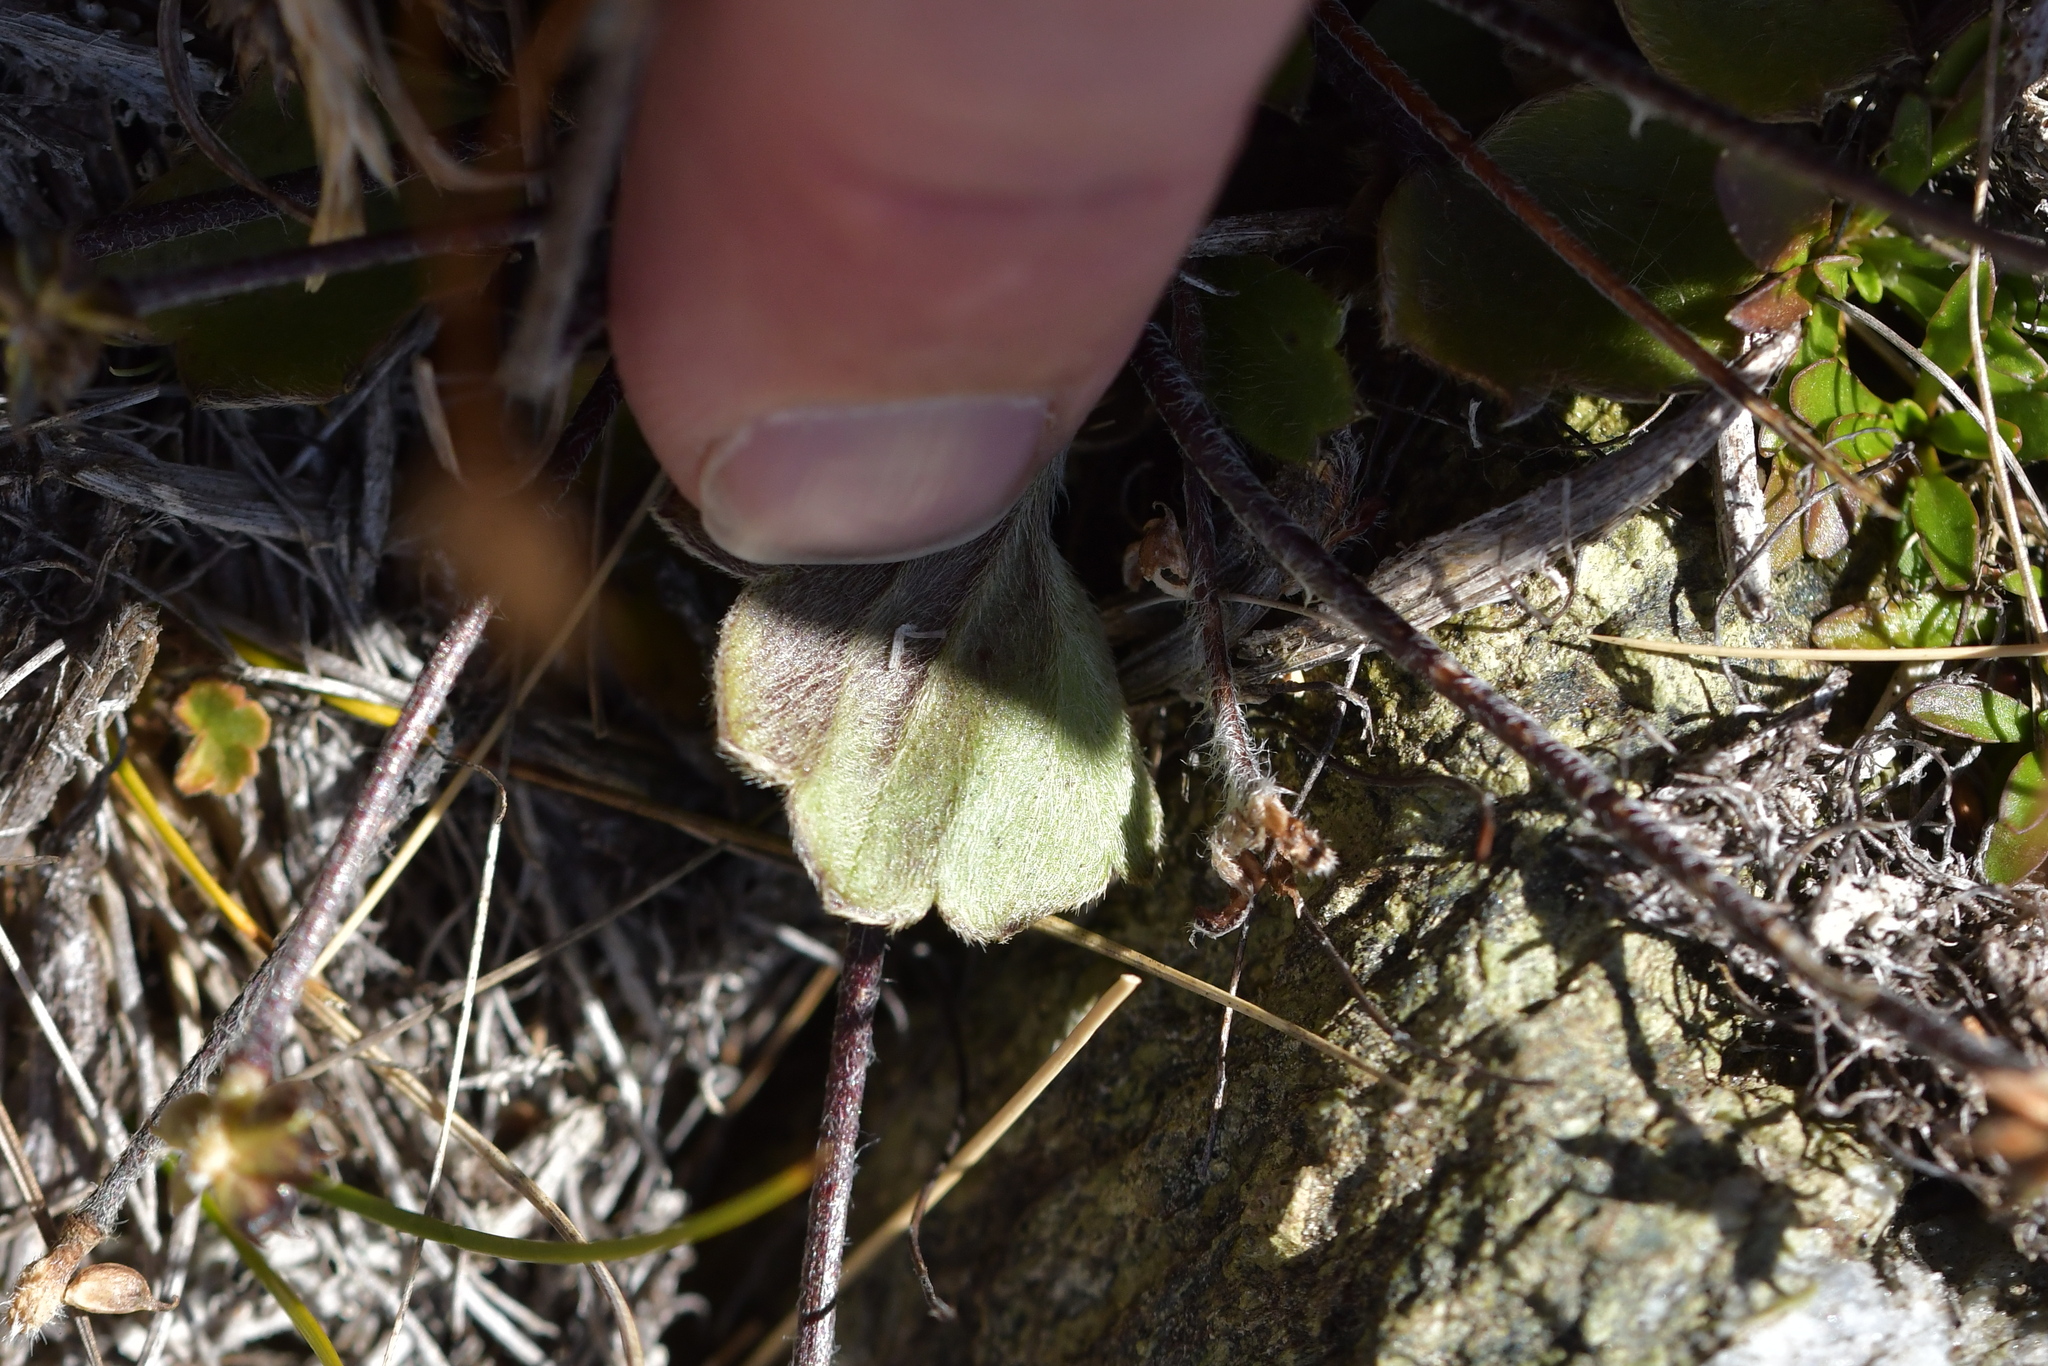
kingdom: Plantae
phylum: Tracheophyta
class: Magnoliopsida
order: Ranunculales
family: Ranunculaceae
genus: Ranunculus
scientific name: Ranunculus multiscapus
